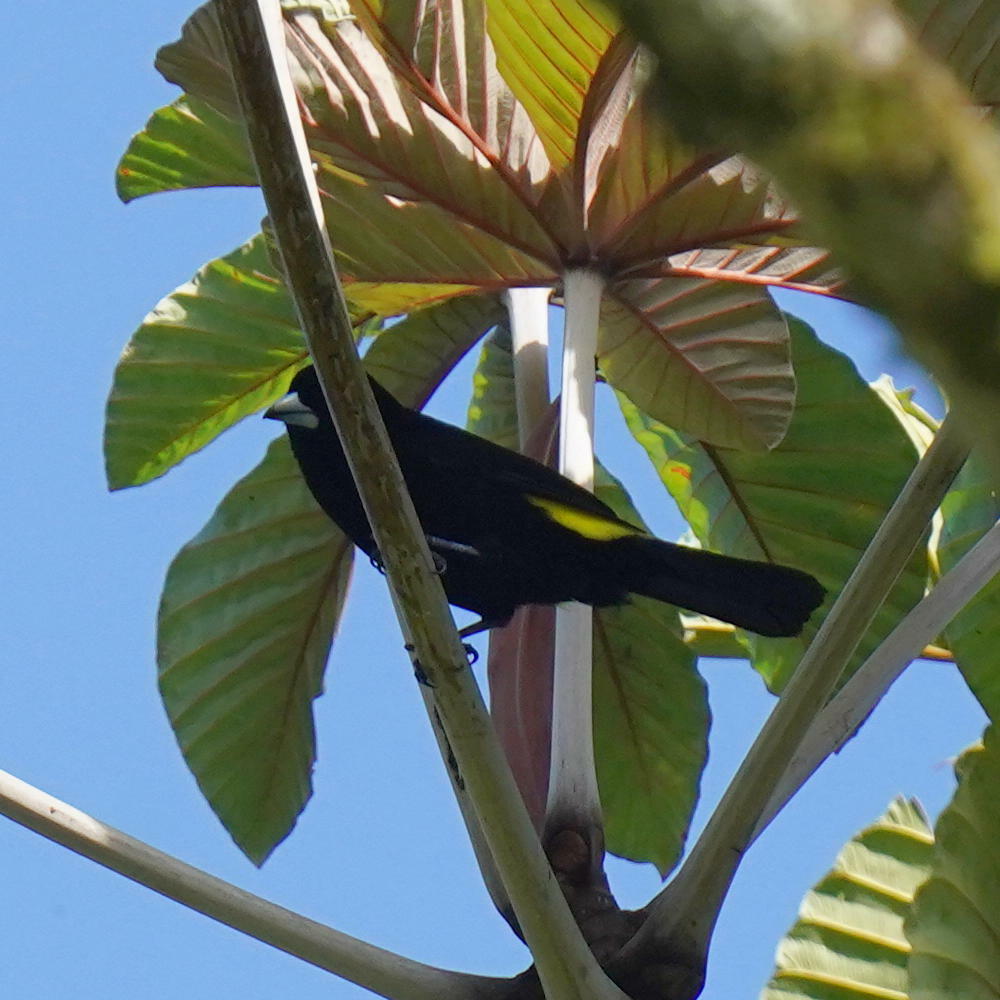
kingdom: Animalia
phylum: Chordata
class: Aves
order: Passeriformes
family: Thraupidae
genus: Ramphocelus
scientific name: Ramphocelus flammigerus
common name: Flame-rumped tanager
